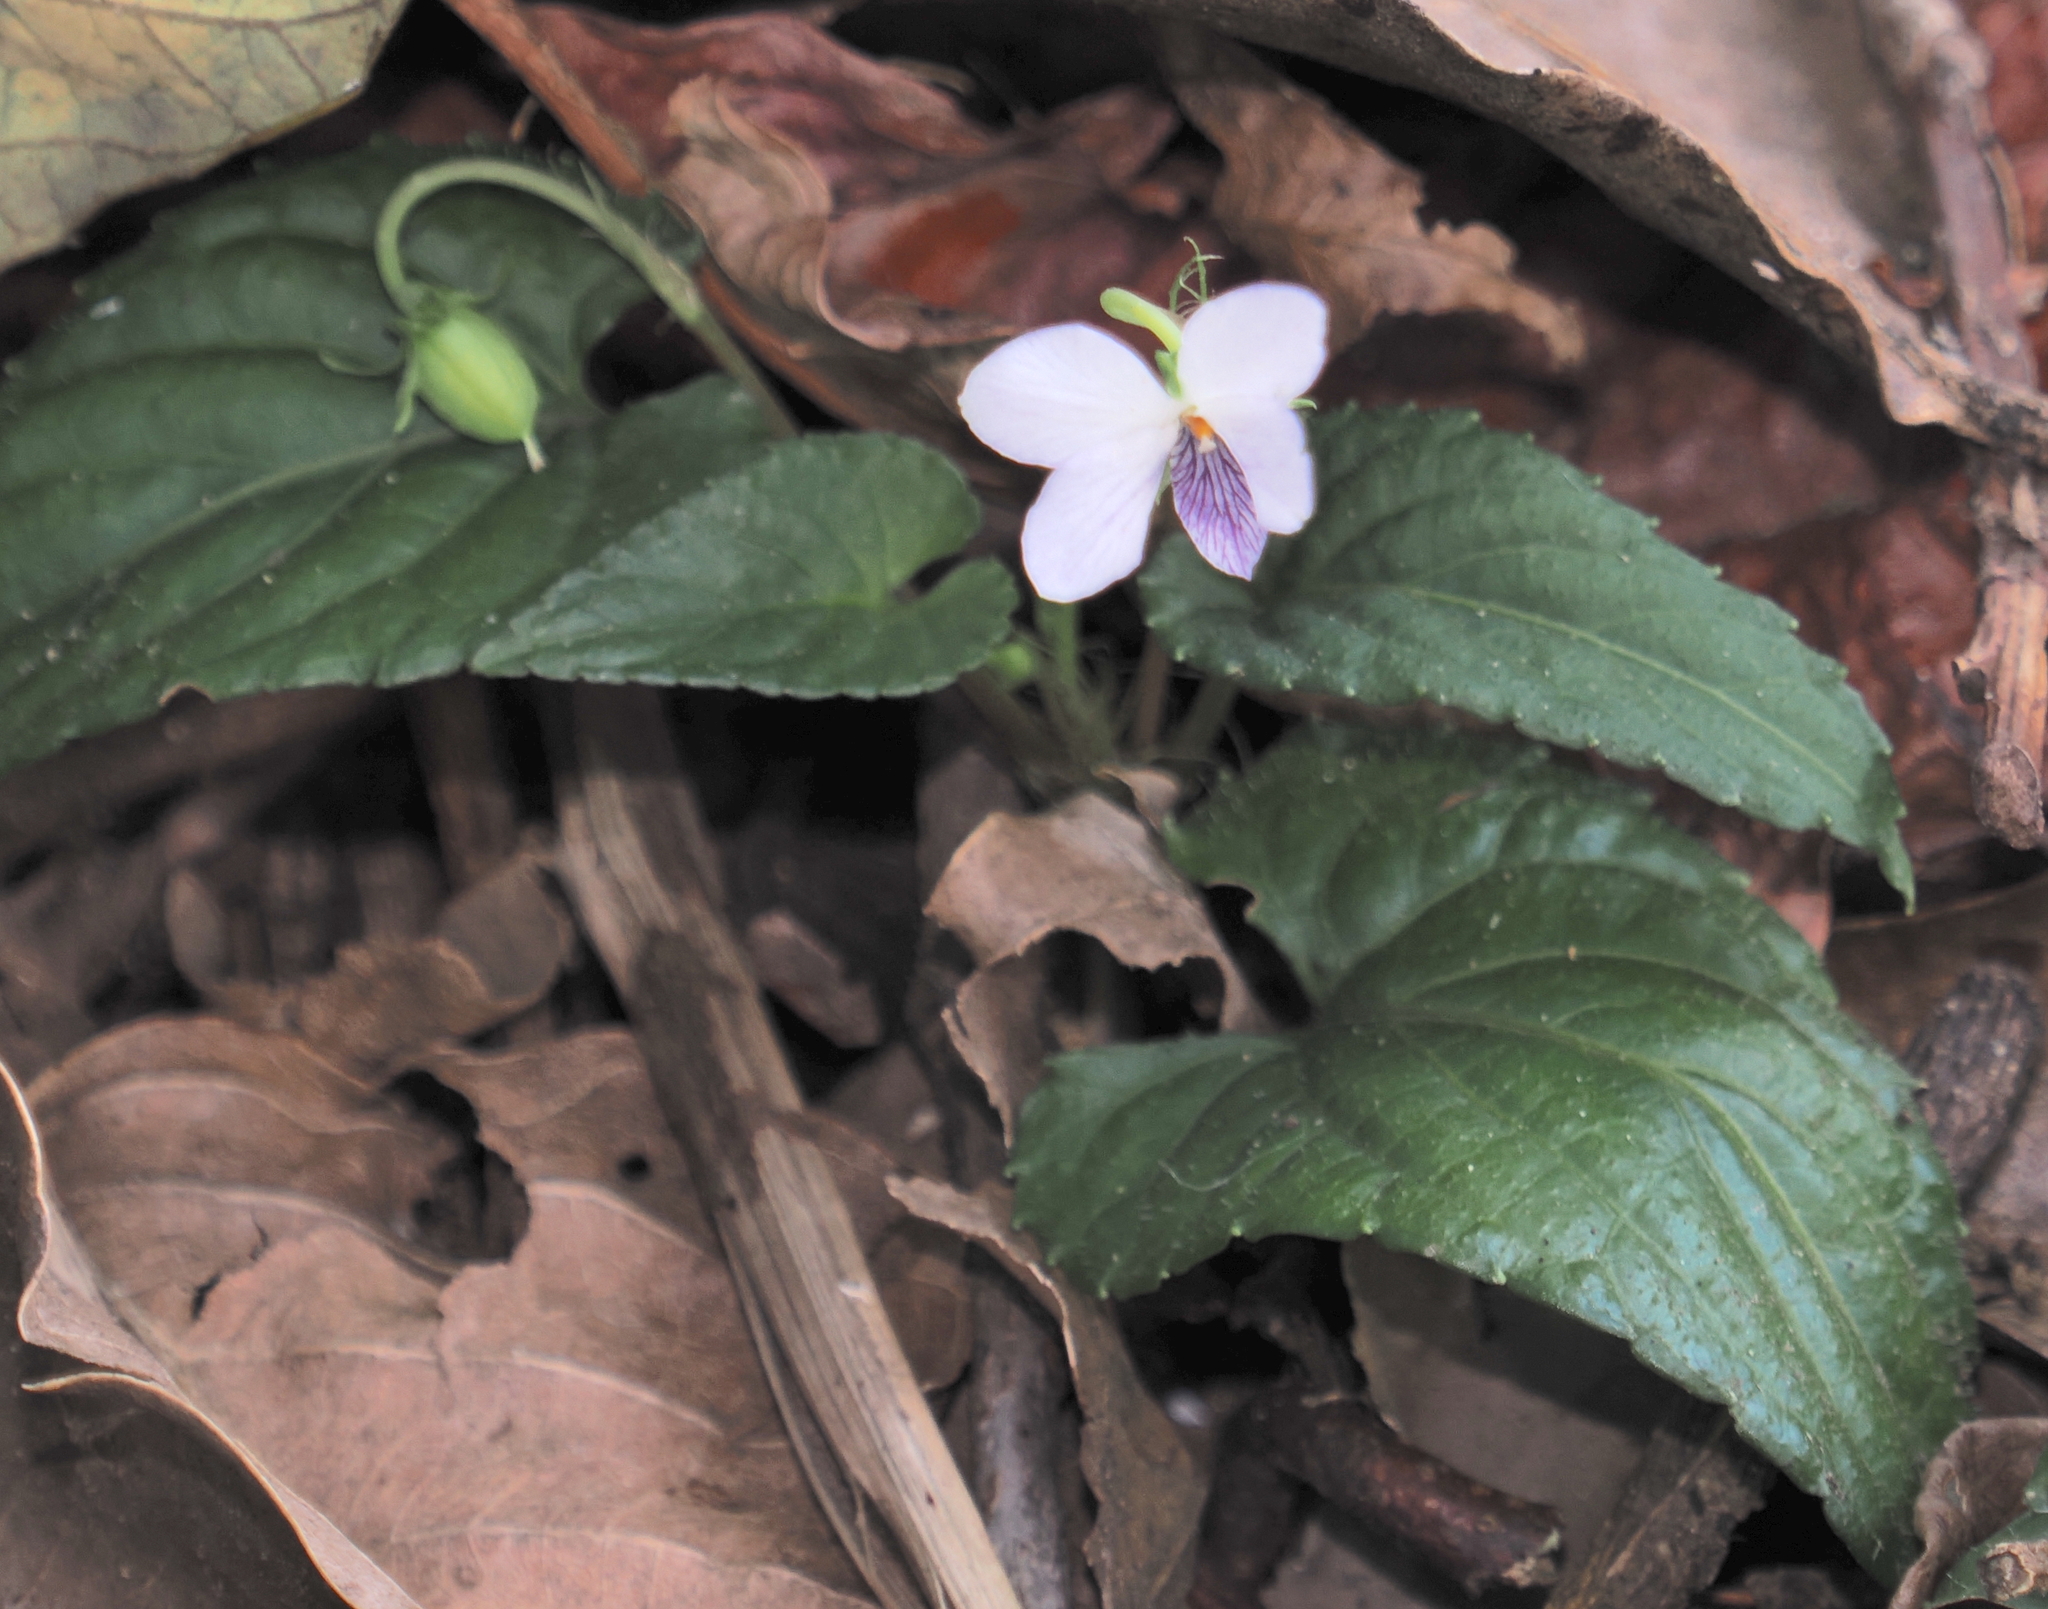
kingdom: Plantae
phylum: Tracheophyta
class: Magnoliopsida
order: Malpighiales
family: Violaceae
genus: Viola
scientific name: Viola sumatrana
